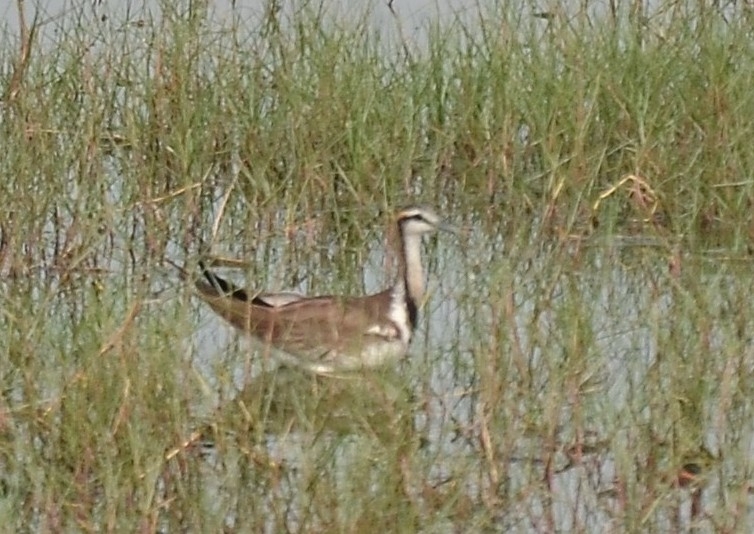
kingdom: Animalia
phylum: Chordata
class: Aves
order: Charadriiformes
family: Jacanidae
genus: Hydrophasianus
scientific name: Hydrophasianus chirurgus
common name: Pheasant-tailed jacana
